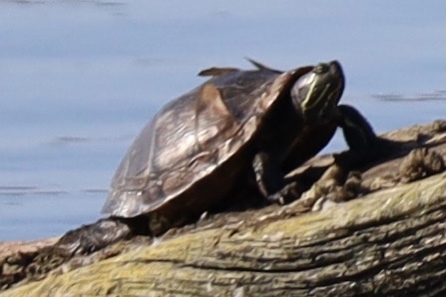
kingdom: Animalia
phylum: Chordata
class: Testudines
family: Emydidae
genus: Trachemys
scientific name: Trachemys scripta
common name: Slider
